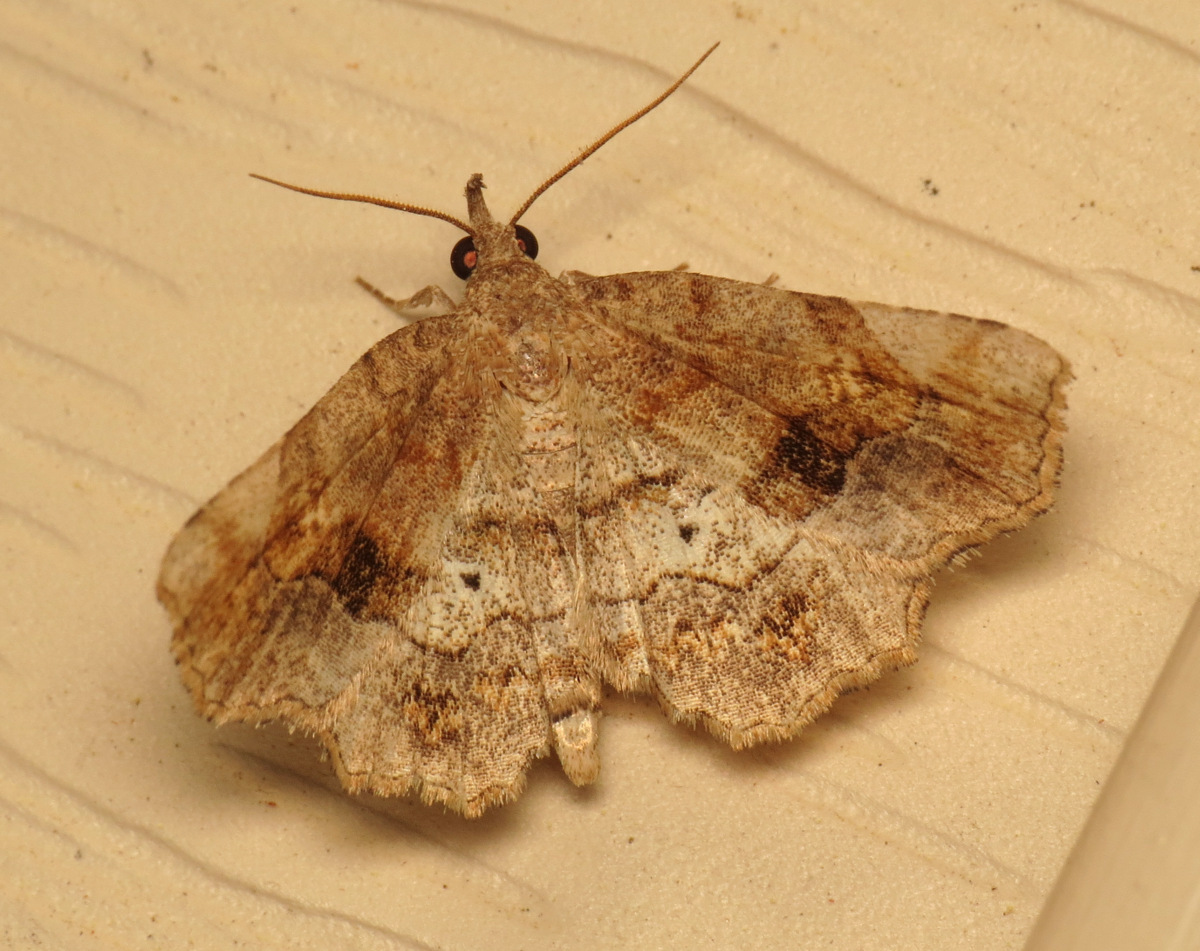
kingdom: Animalia
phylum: Arthropoda
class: Insecta
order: Lepidoptera
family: Erebidae
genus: Pangrapta
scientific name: Pangrapta decoralis
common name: Decorated owlet
